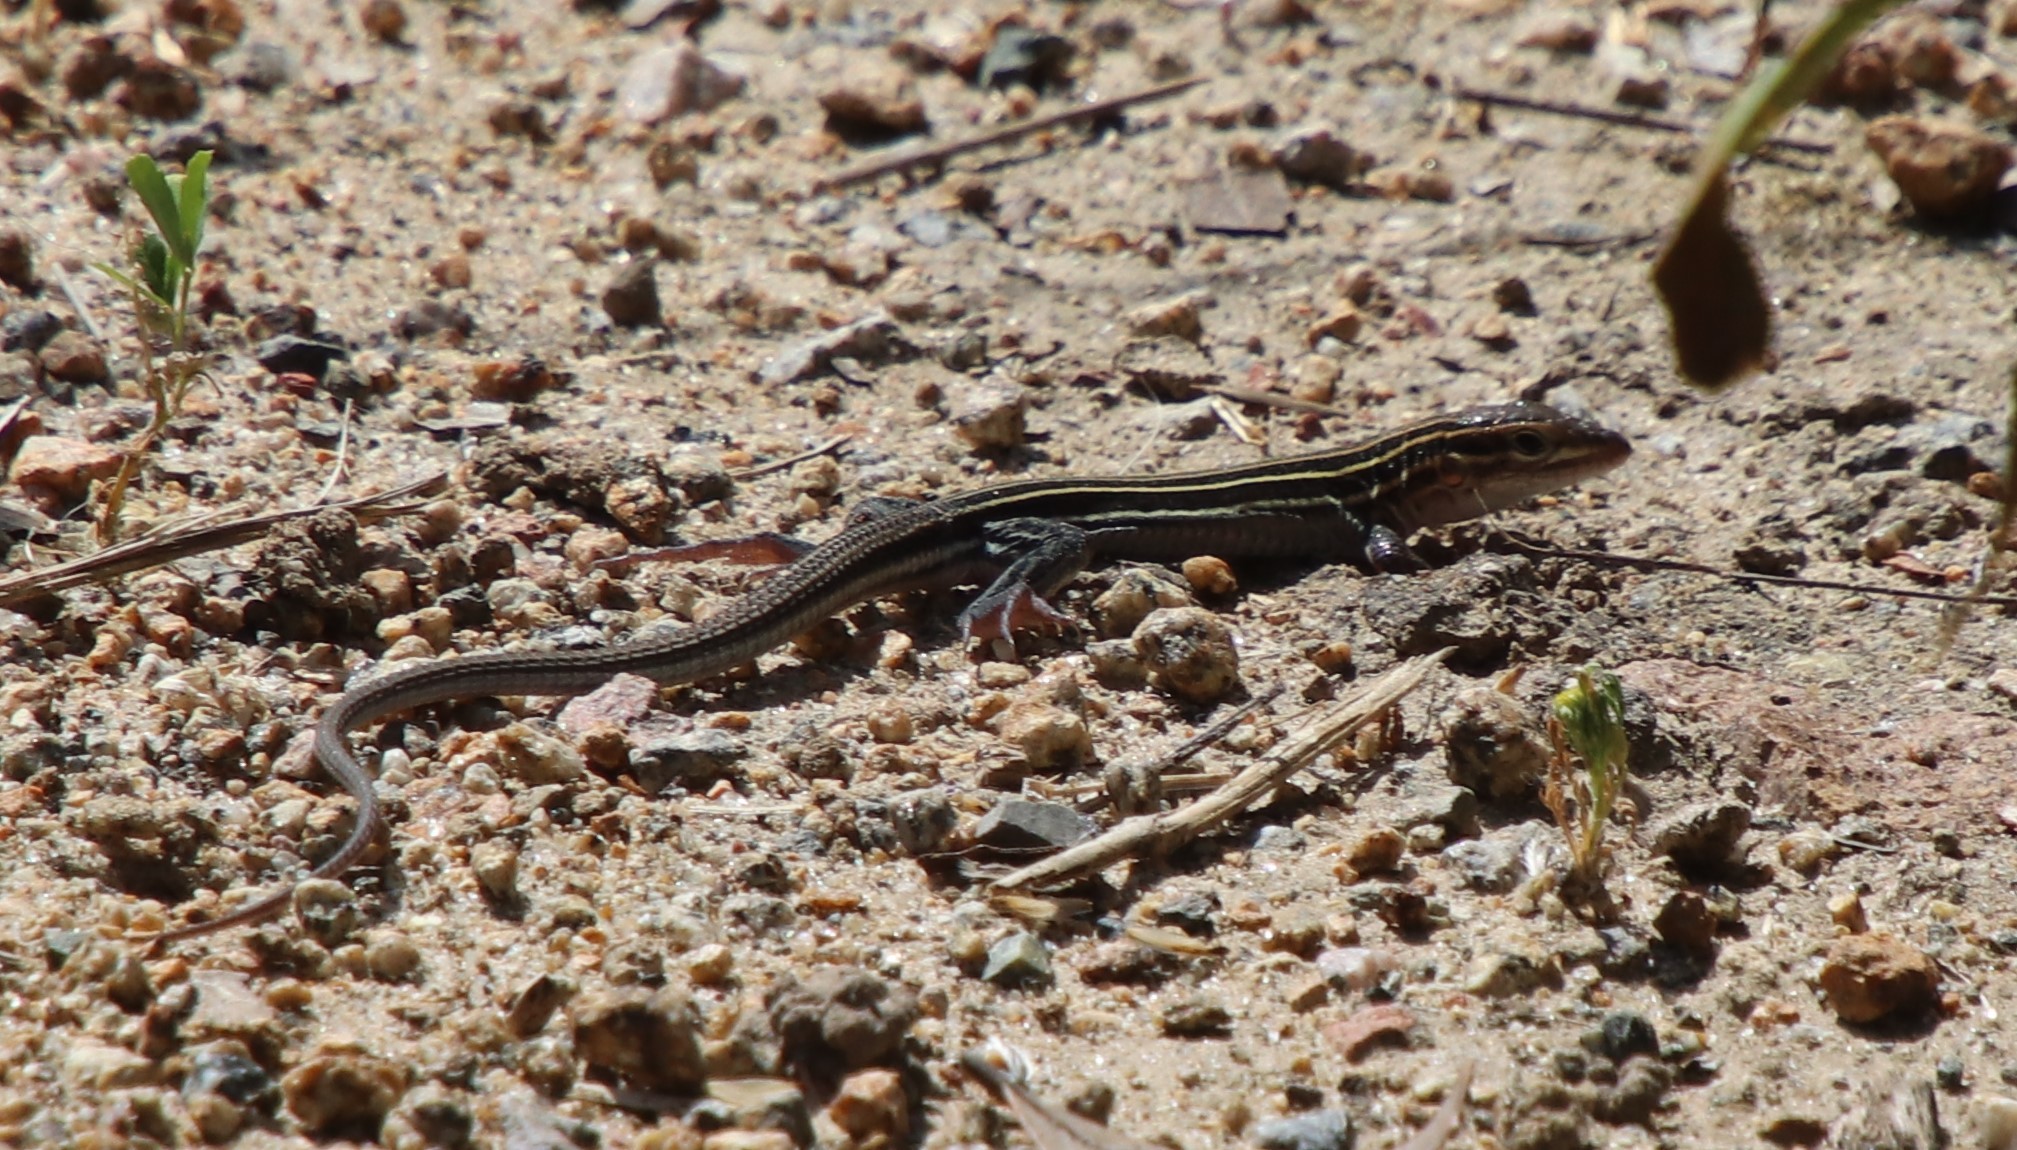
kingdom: Animalia
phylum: Chordata
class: Squamata
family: Teiidae
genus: Aspidoscelis
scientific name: Aspidoscelis hyperythrus
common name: Orange-throated race-runner
